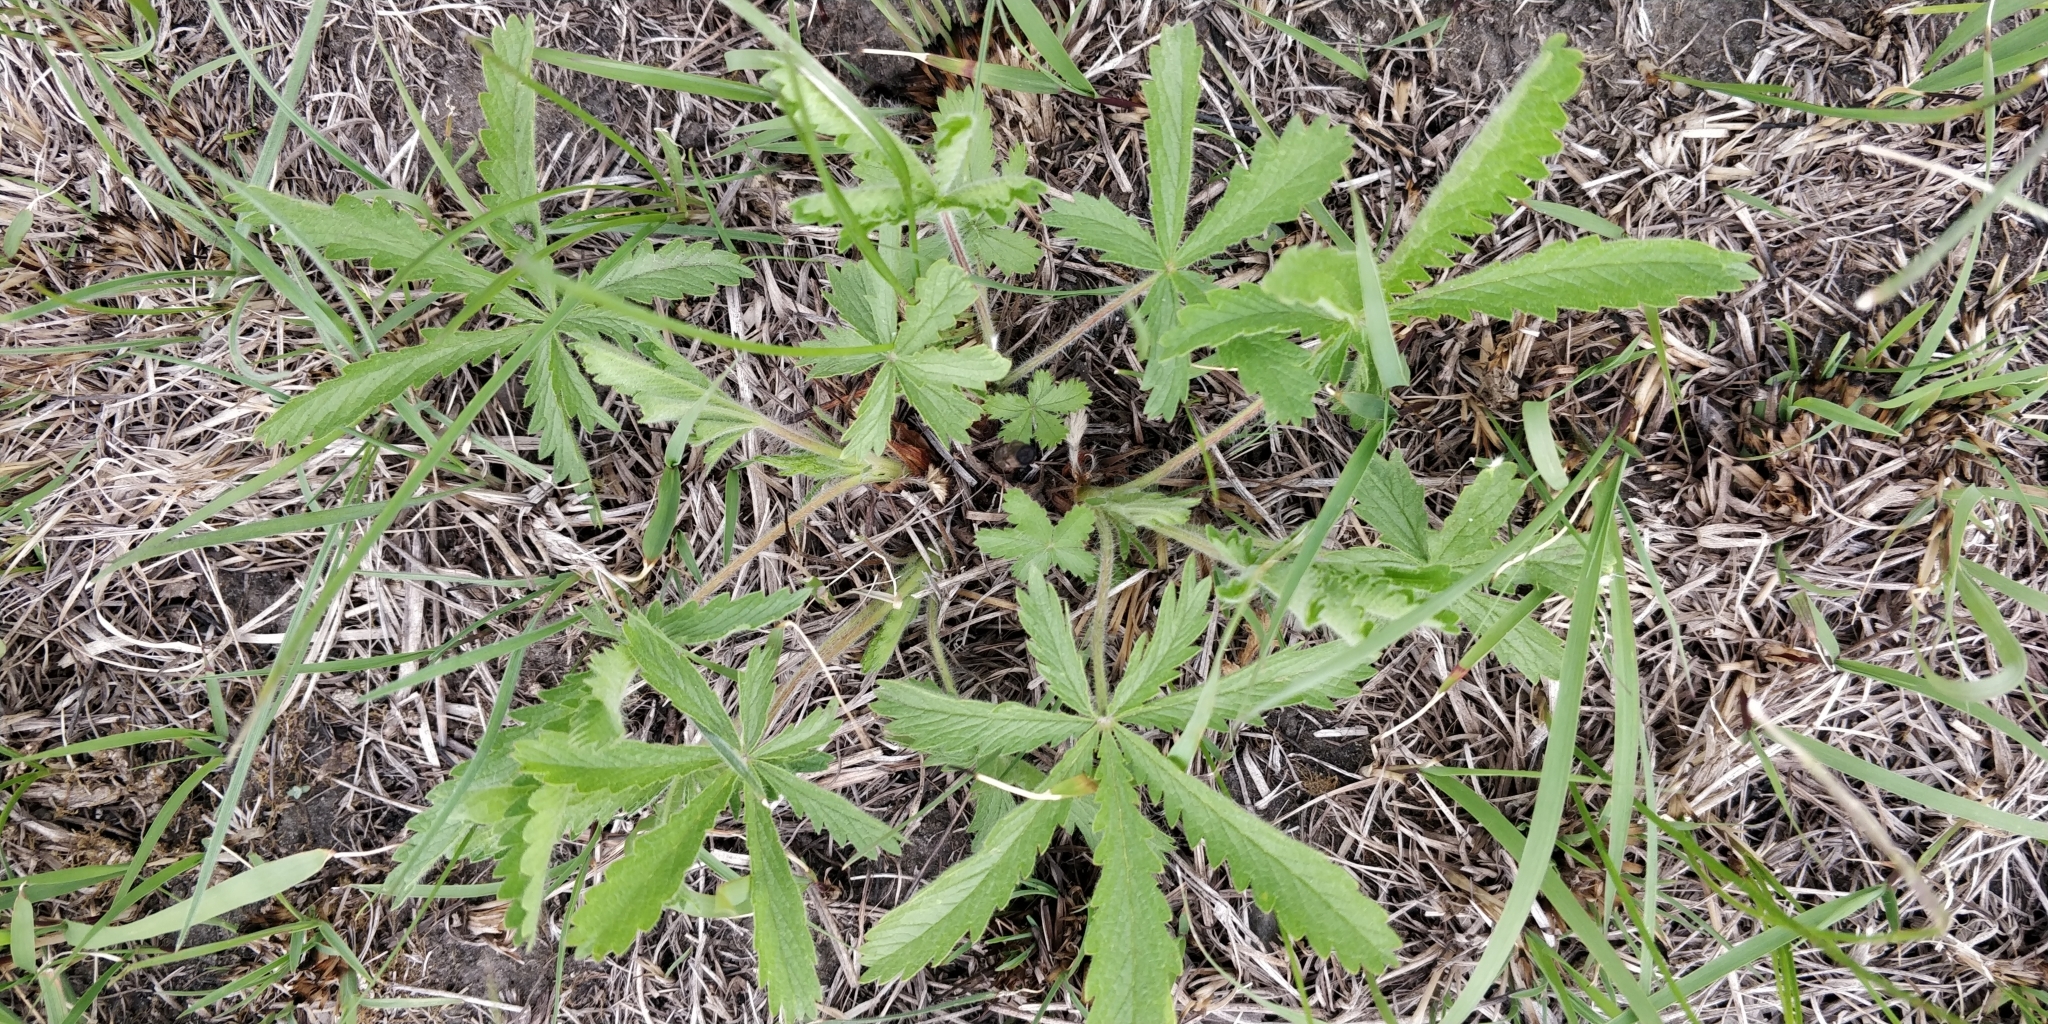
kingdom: Plantae
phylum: Tracheophyta
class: Magnoliopsida
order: Rosales
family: Rosaceae
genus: Potentilla
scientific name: Potentilla recta
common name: Sulphur cinquefoil
